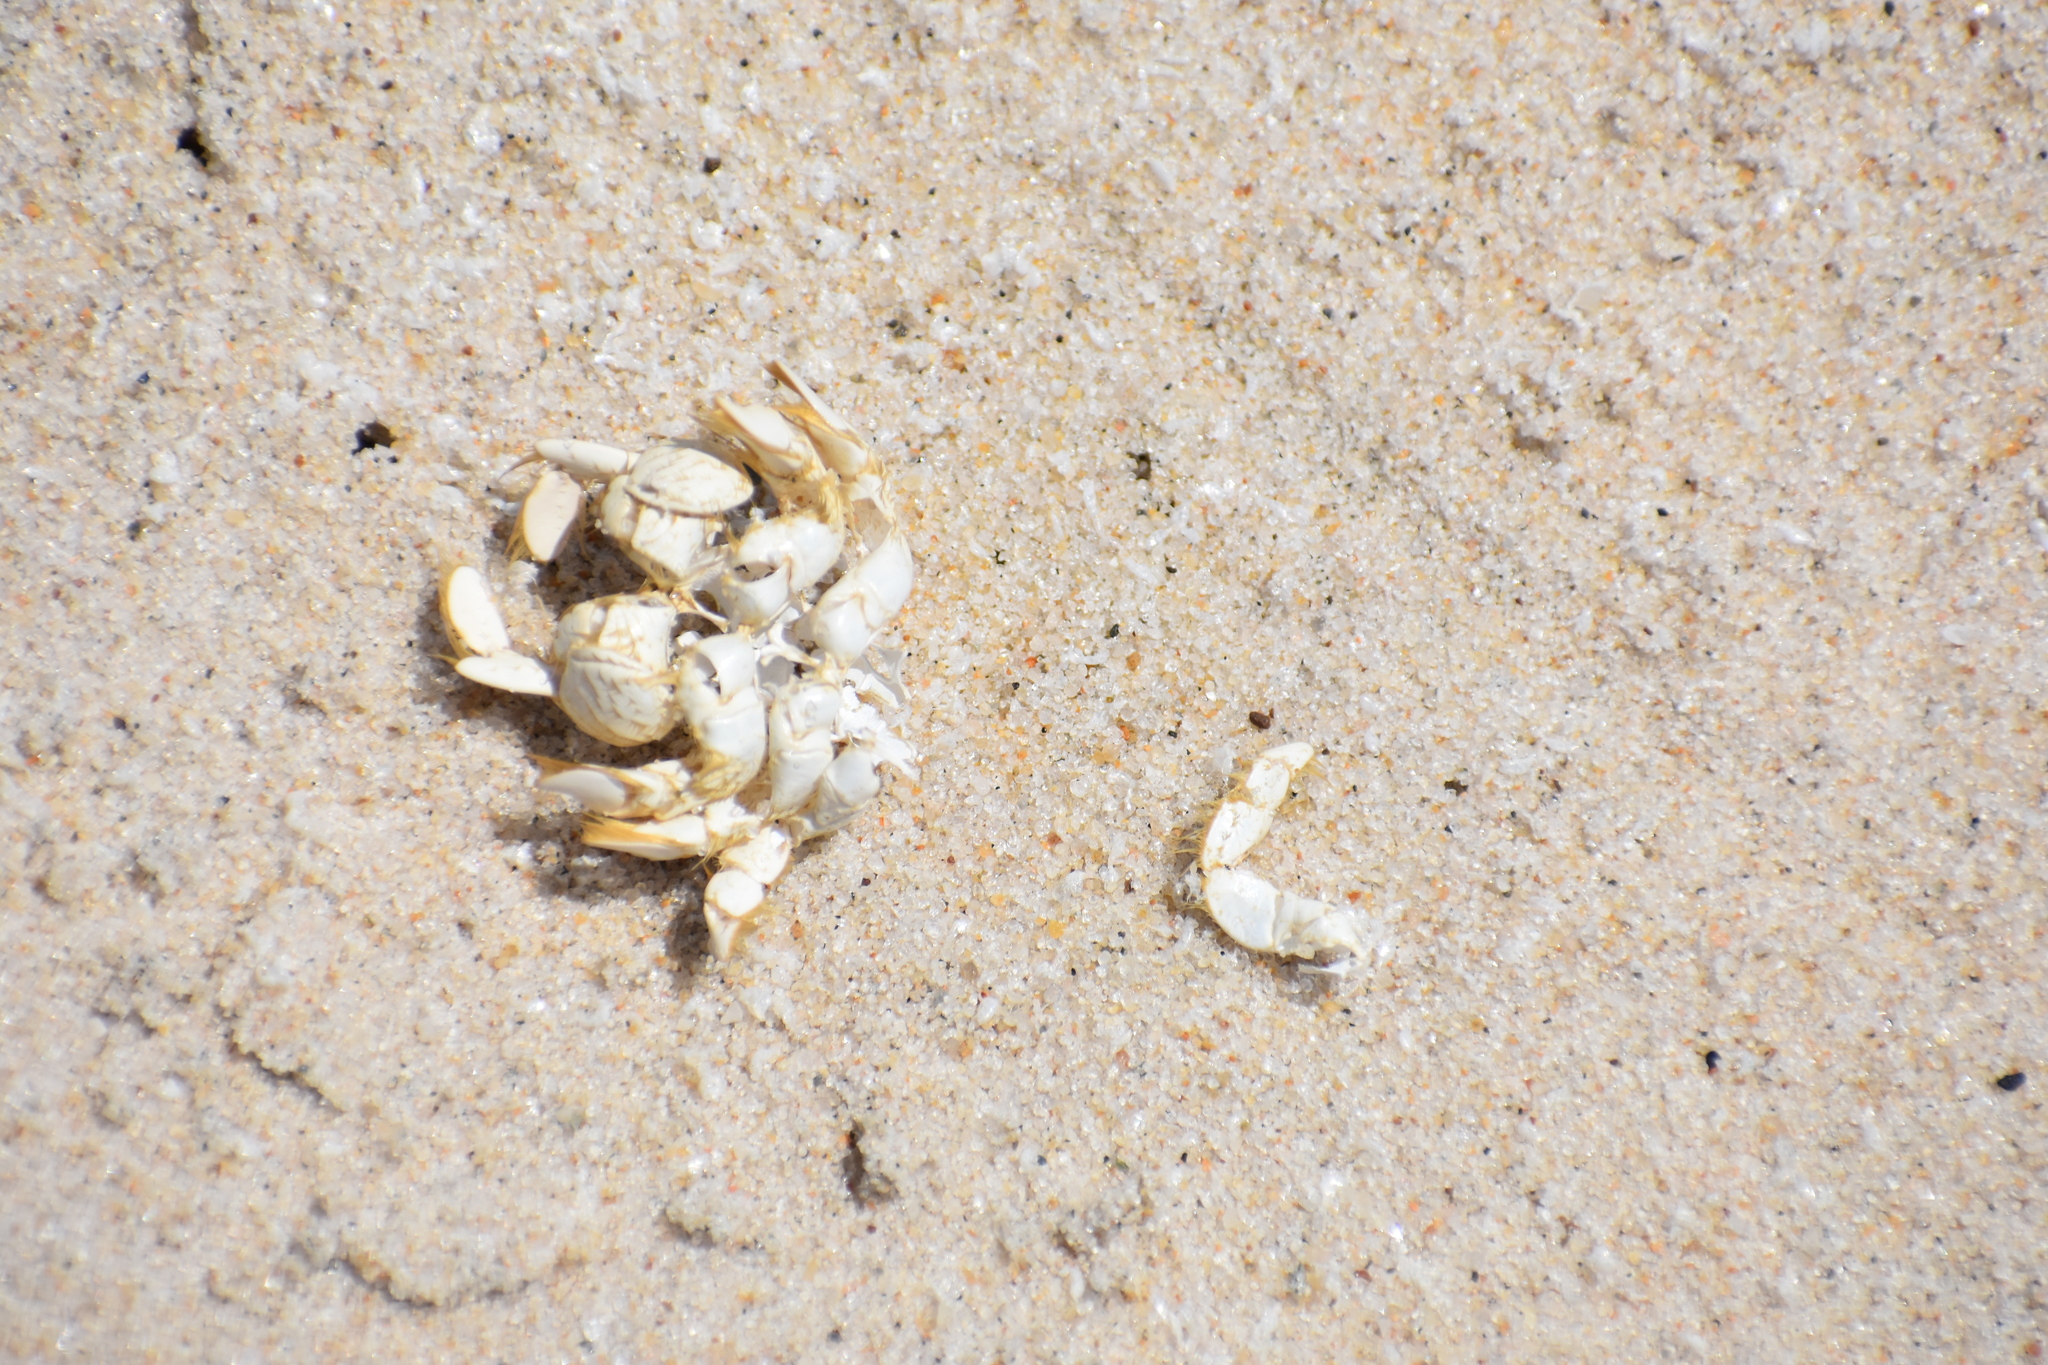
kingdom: Animalia
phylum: Arthropoda
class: Malacostraca
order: Decapoda
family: Hippidae
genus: Emerita
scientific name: Emerita talpoida
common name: Atlantic sand crab
